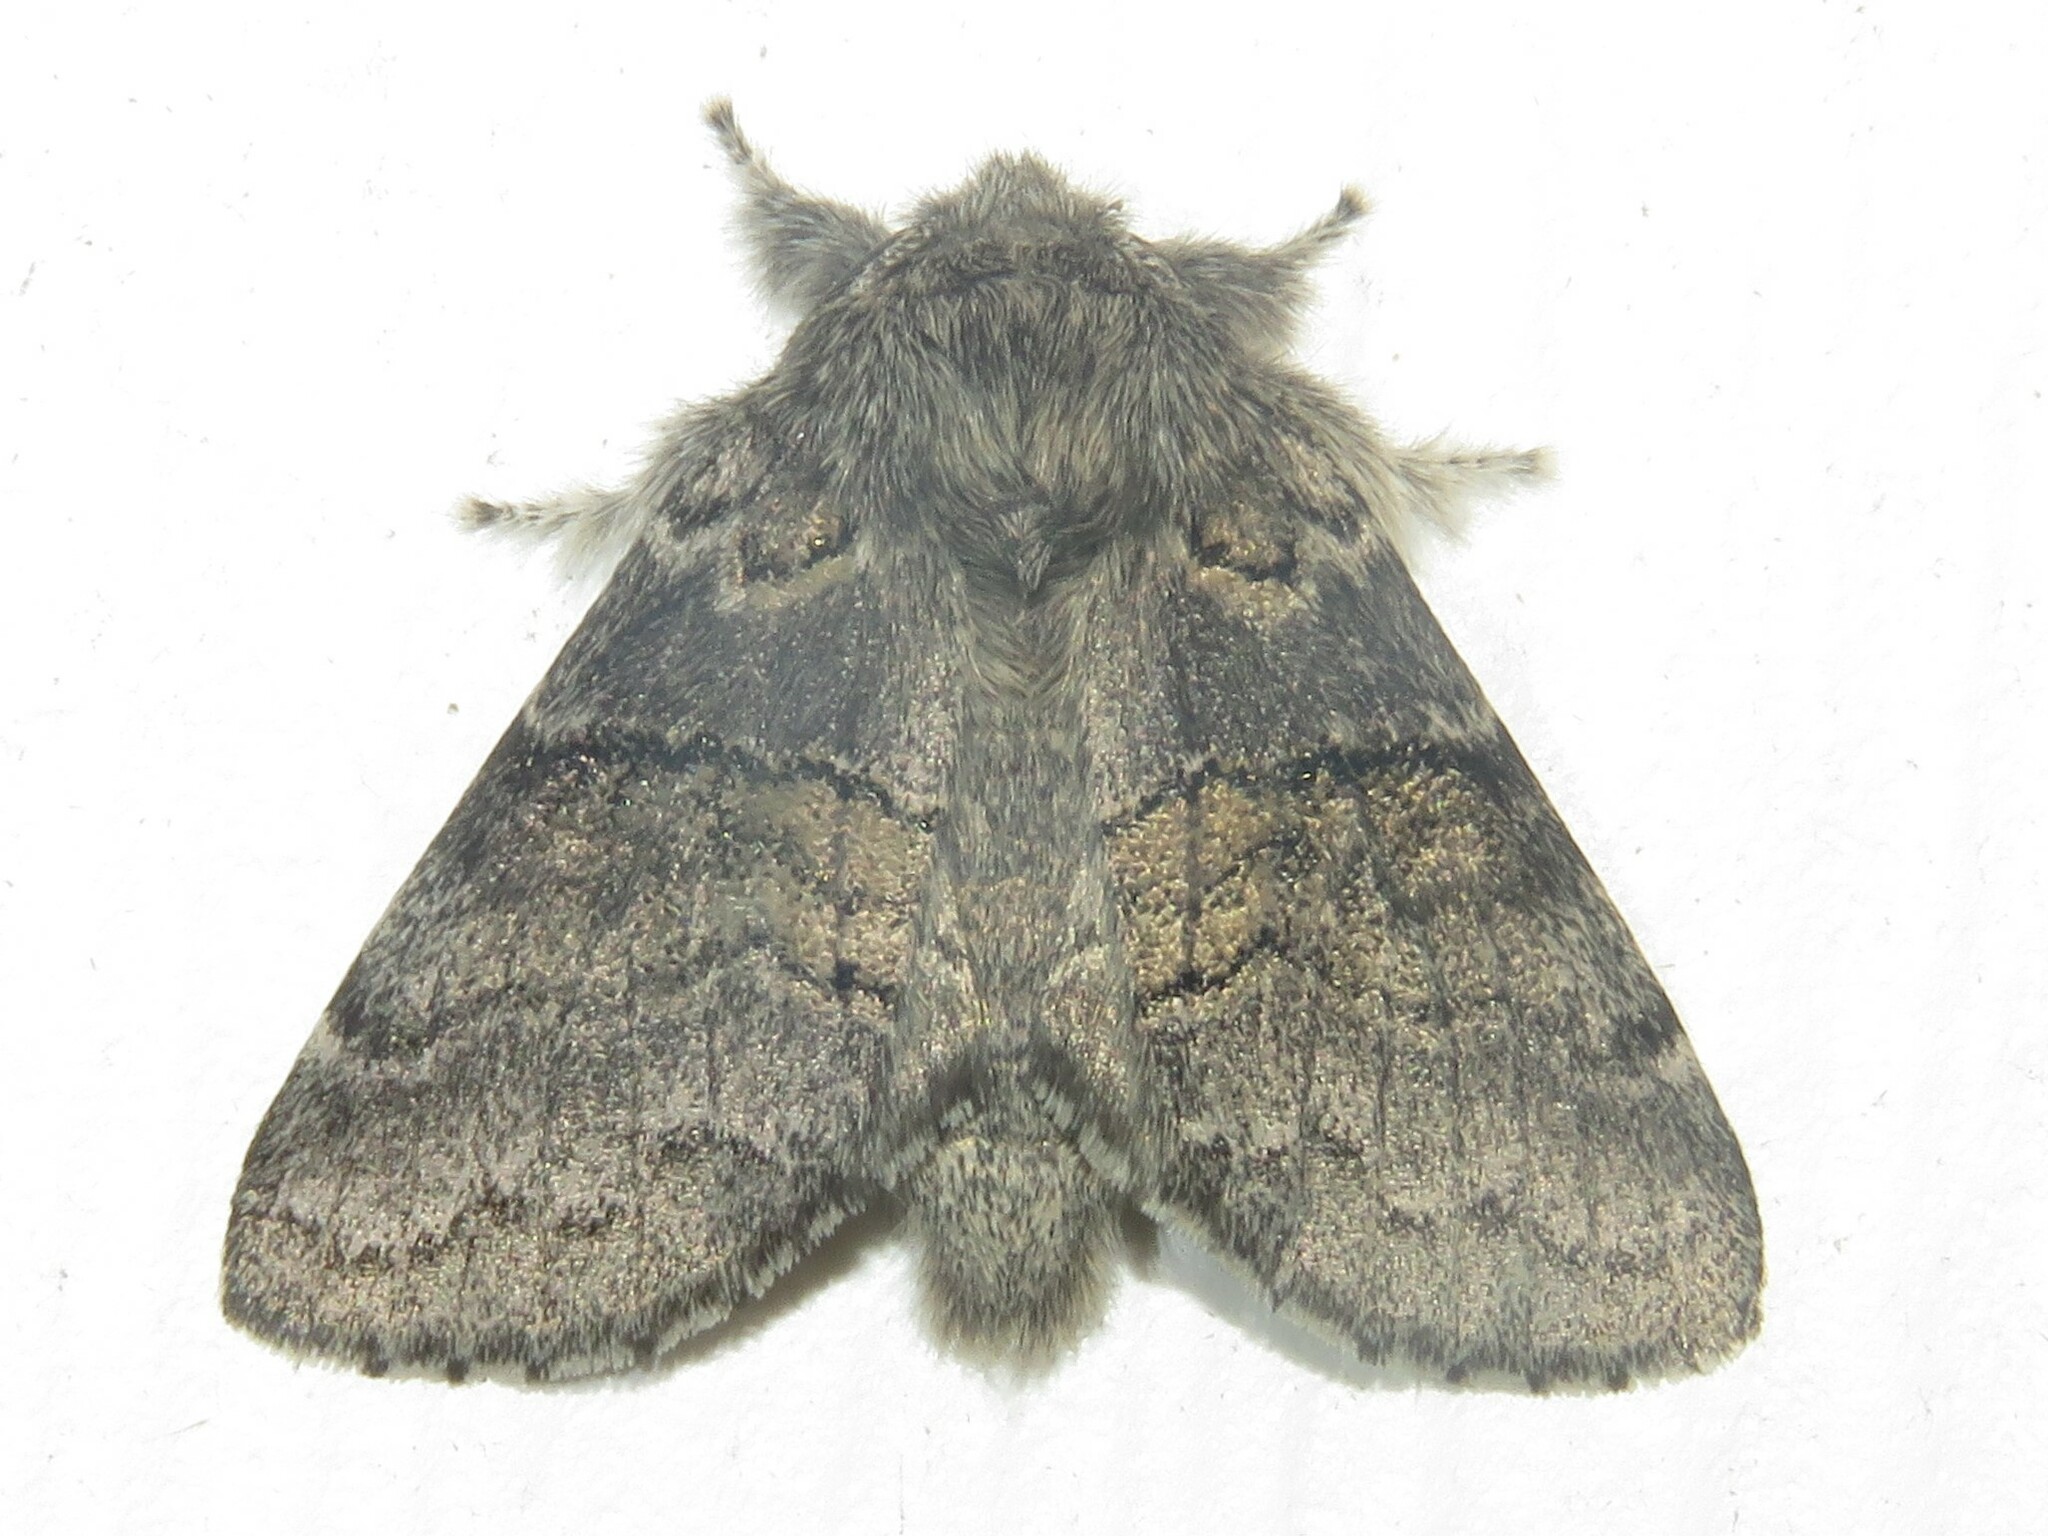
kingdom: Animalia
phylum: Arthropoda
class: Insecta
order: Lepidoptera
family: Notodontidae
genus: Gluphisia
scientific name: Gluphisia septentrionis
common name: Common gluphisia
